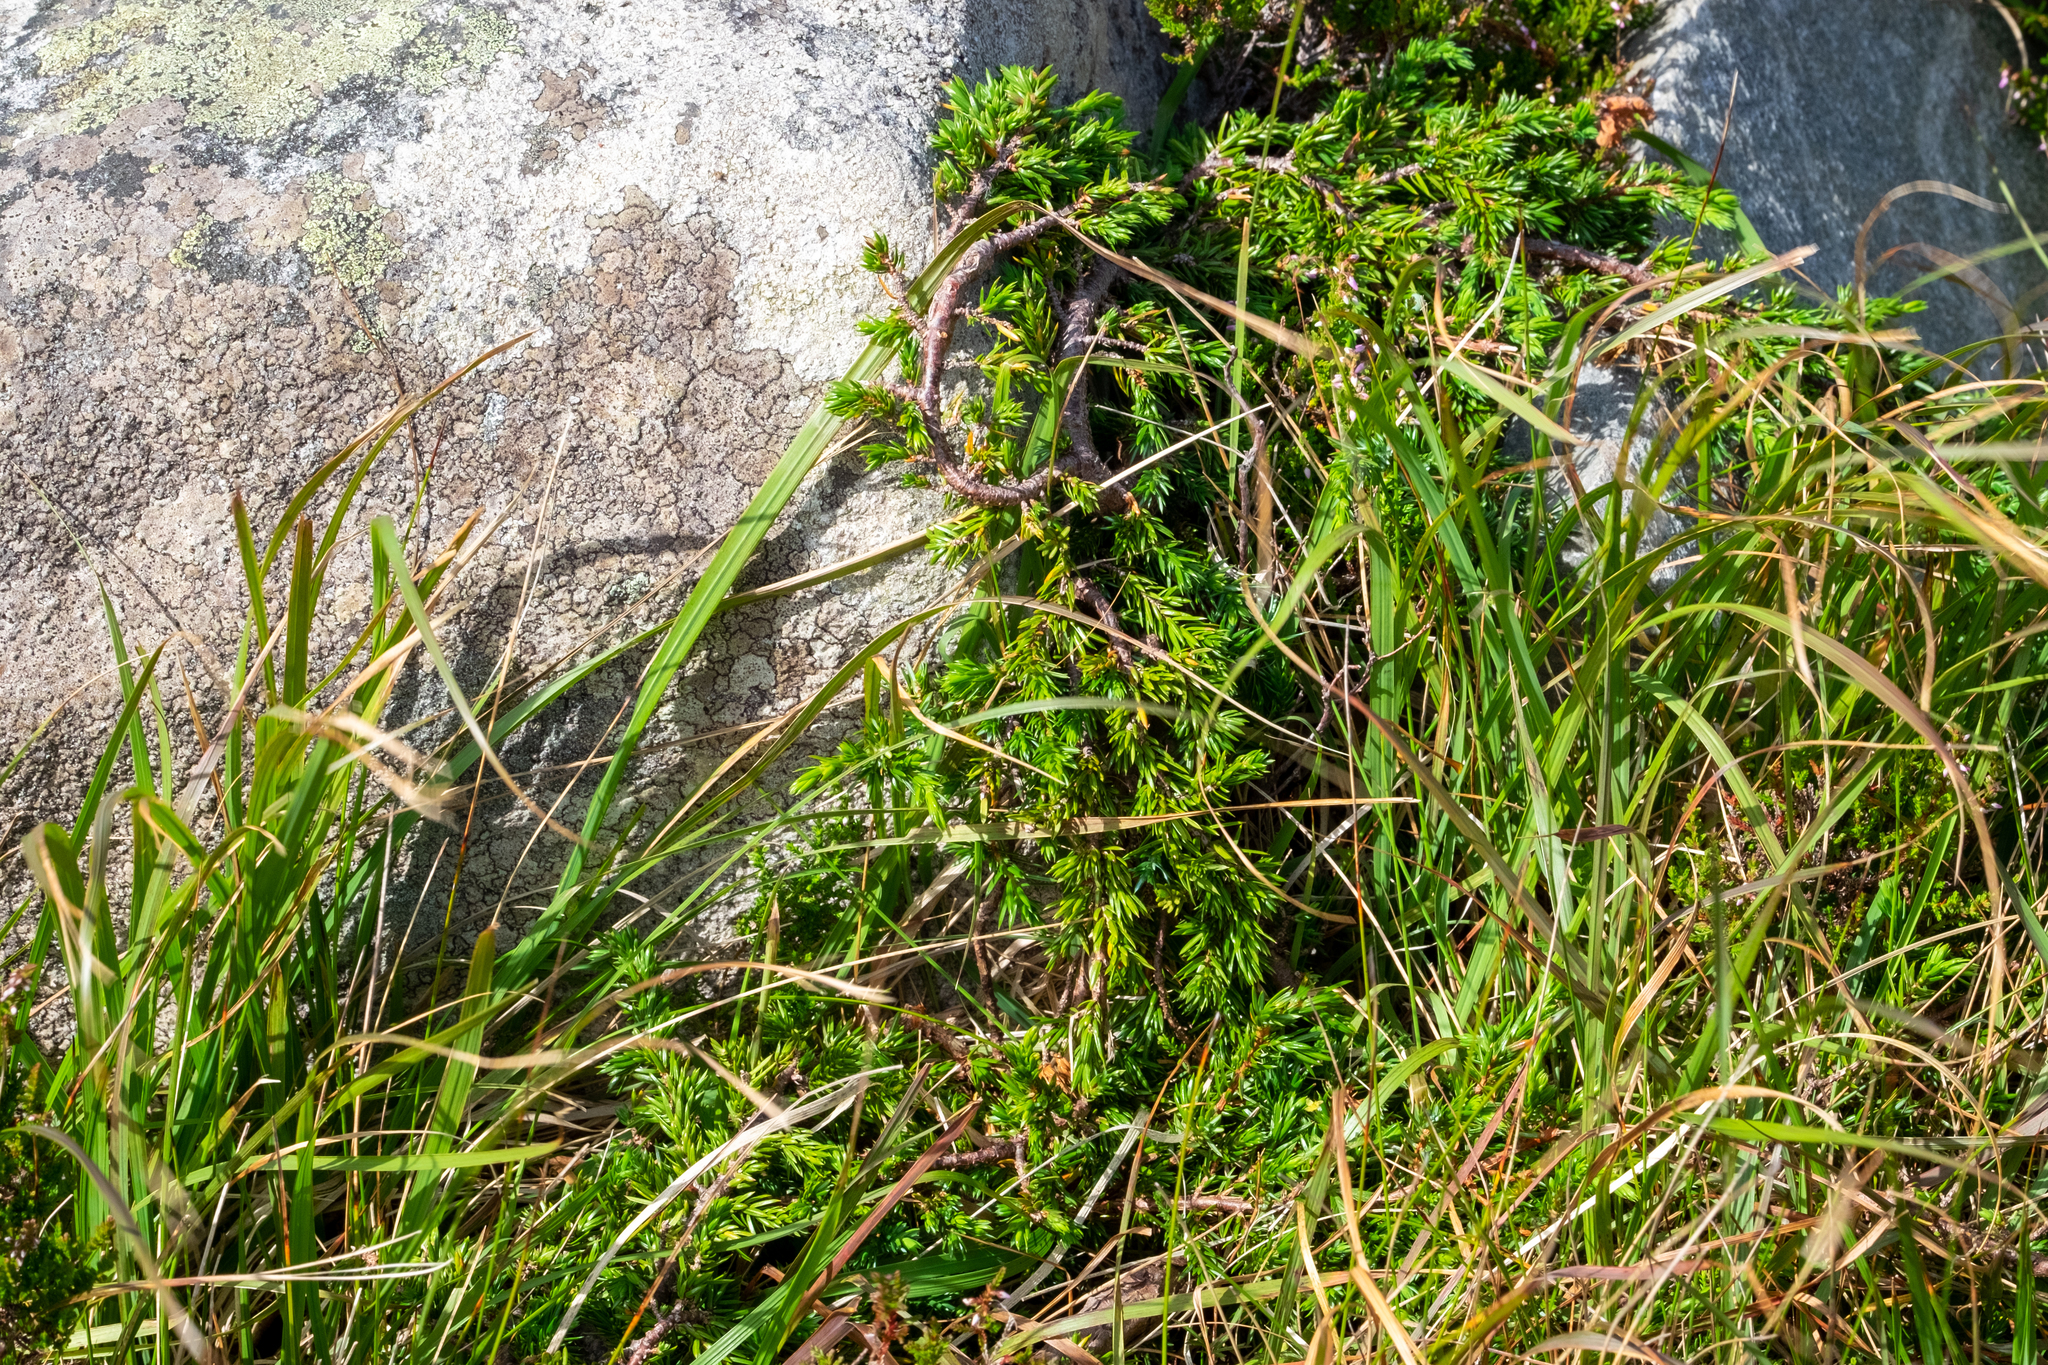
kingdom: Plantae
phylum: Tracheophyta
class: Pinopsida
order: Pinales
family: Cupressaceae
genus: Juniperus
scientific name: Juniperus communis
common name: Common juniper
